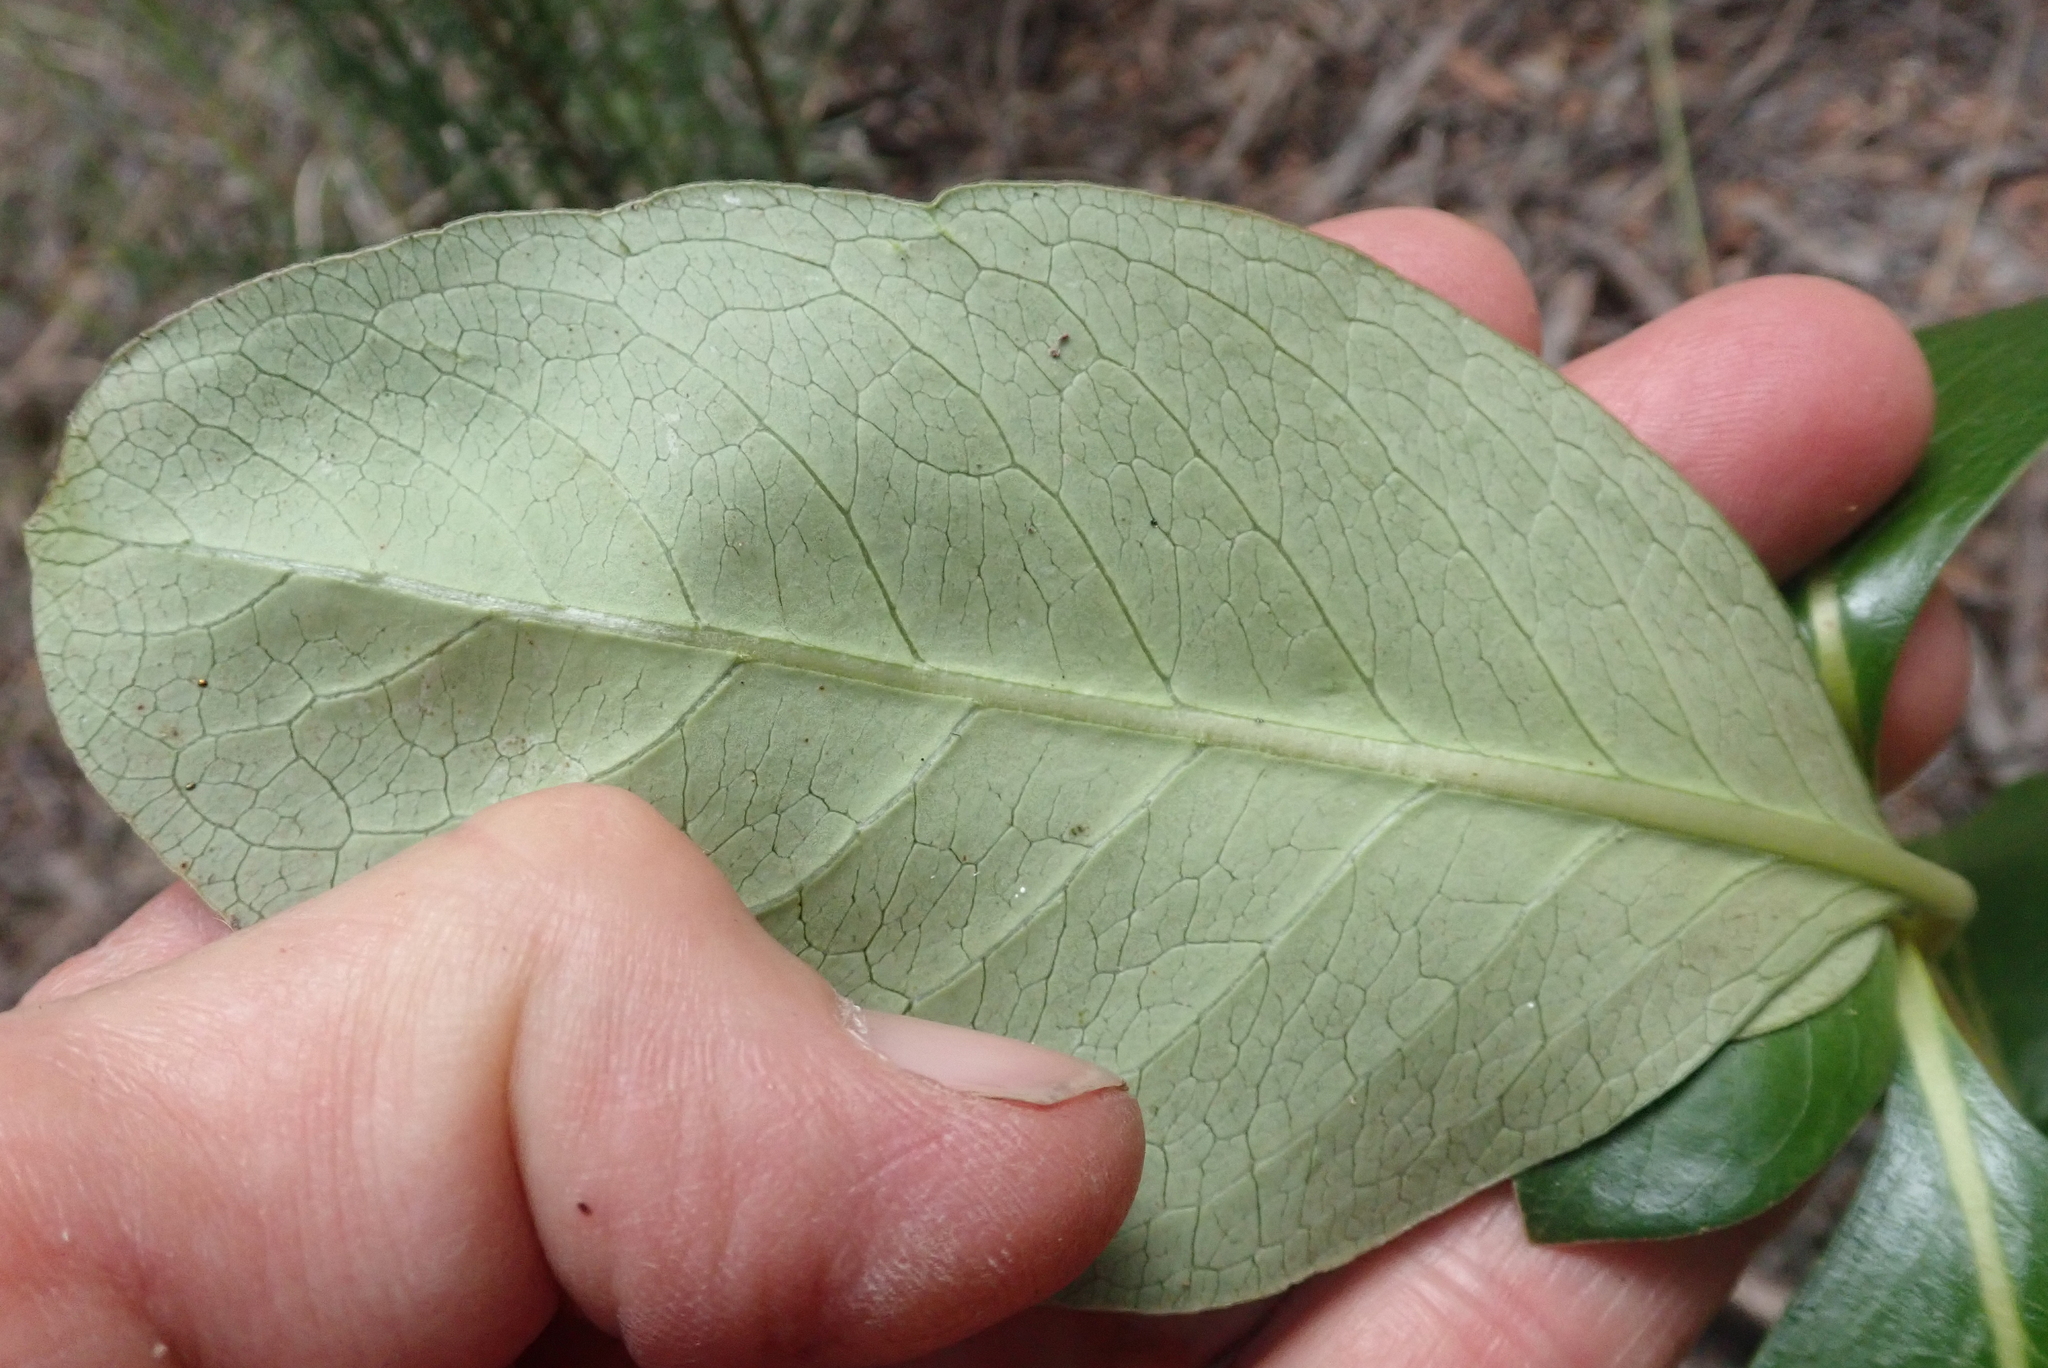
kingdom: Plantae
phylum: Tracheophyta
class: Magnoliopsida
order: Gentianales
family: Rubiaceae
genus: Coprosma
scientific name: Coprosma lucida
